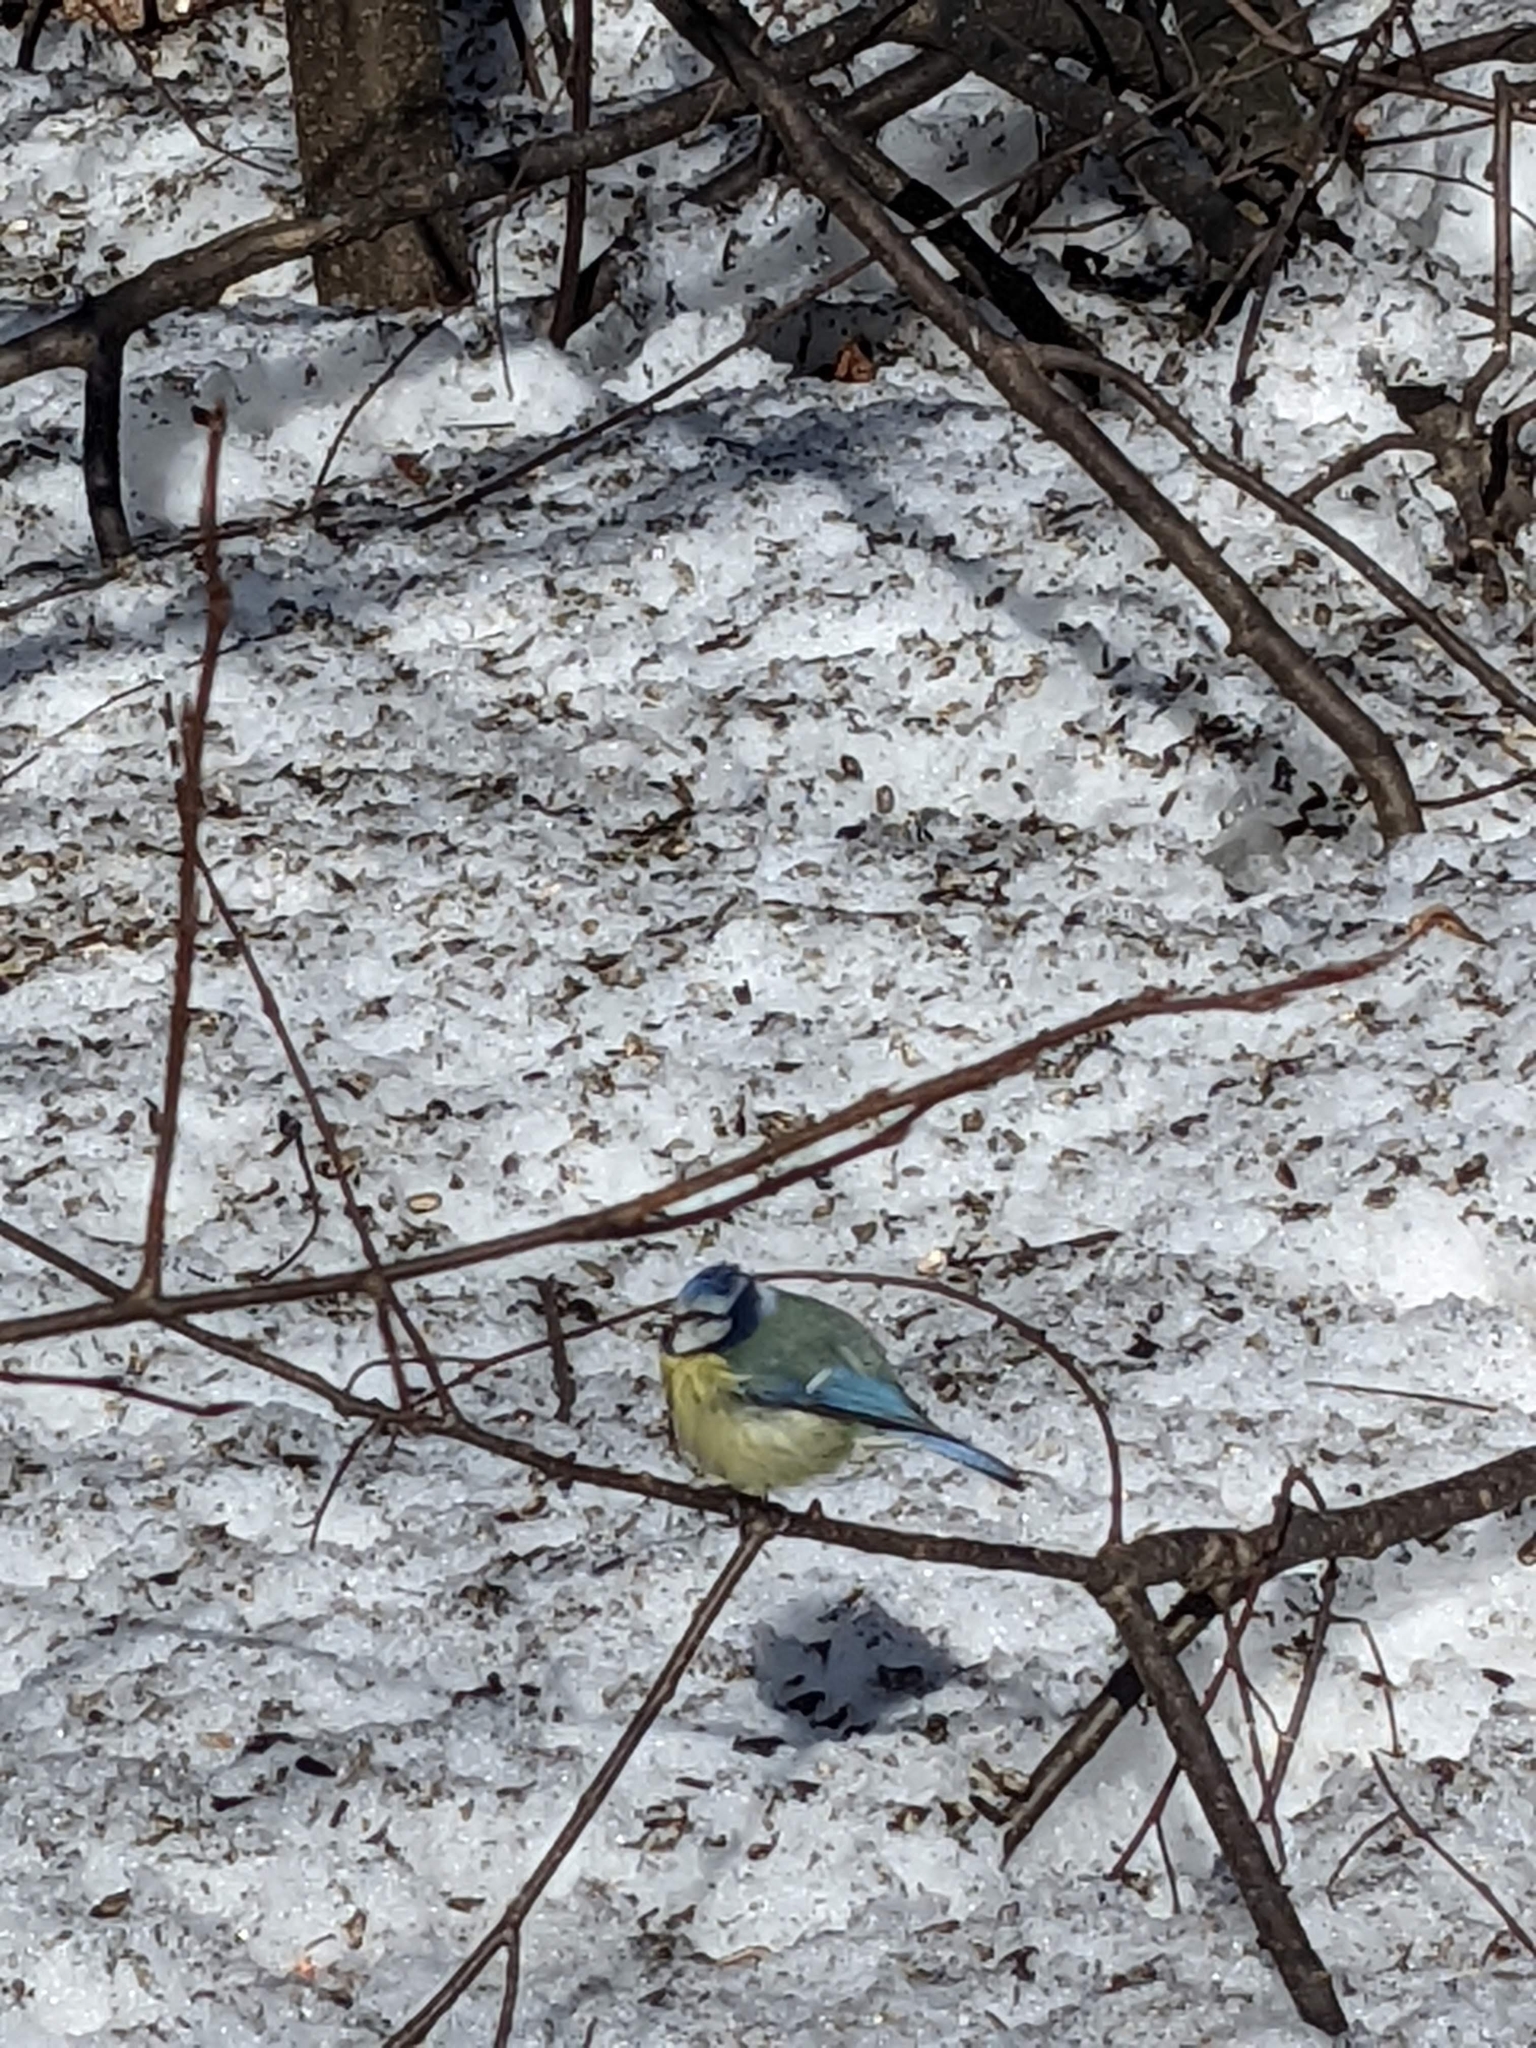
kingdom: Animalia
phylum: Chordata
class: Aves
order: Passeriformes
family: Paridae
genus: Cyanistes
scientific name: Cyanistes caeruleus
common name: Eurasian blue tit
